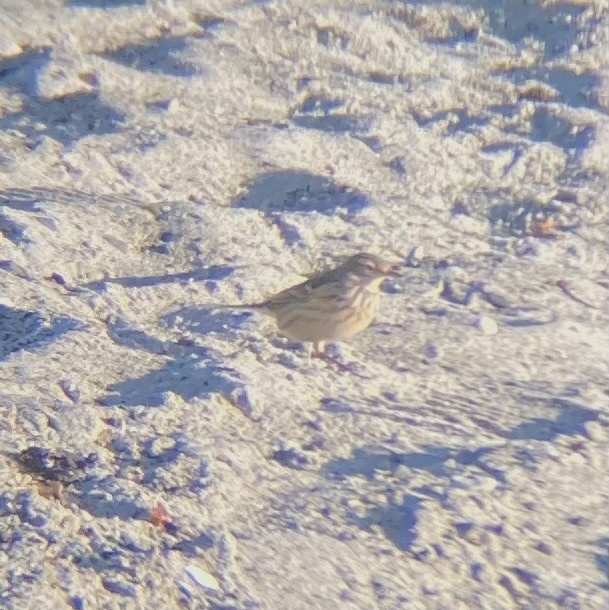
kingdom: Animalia
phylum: Chordata
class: Aves
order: Passeriformes
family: Motacillidae
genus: Anthus
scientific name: Anthus rubescens
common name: Buff-bellied pipit
